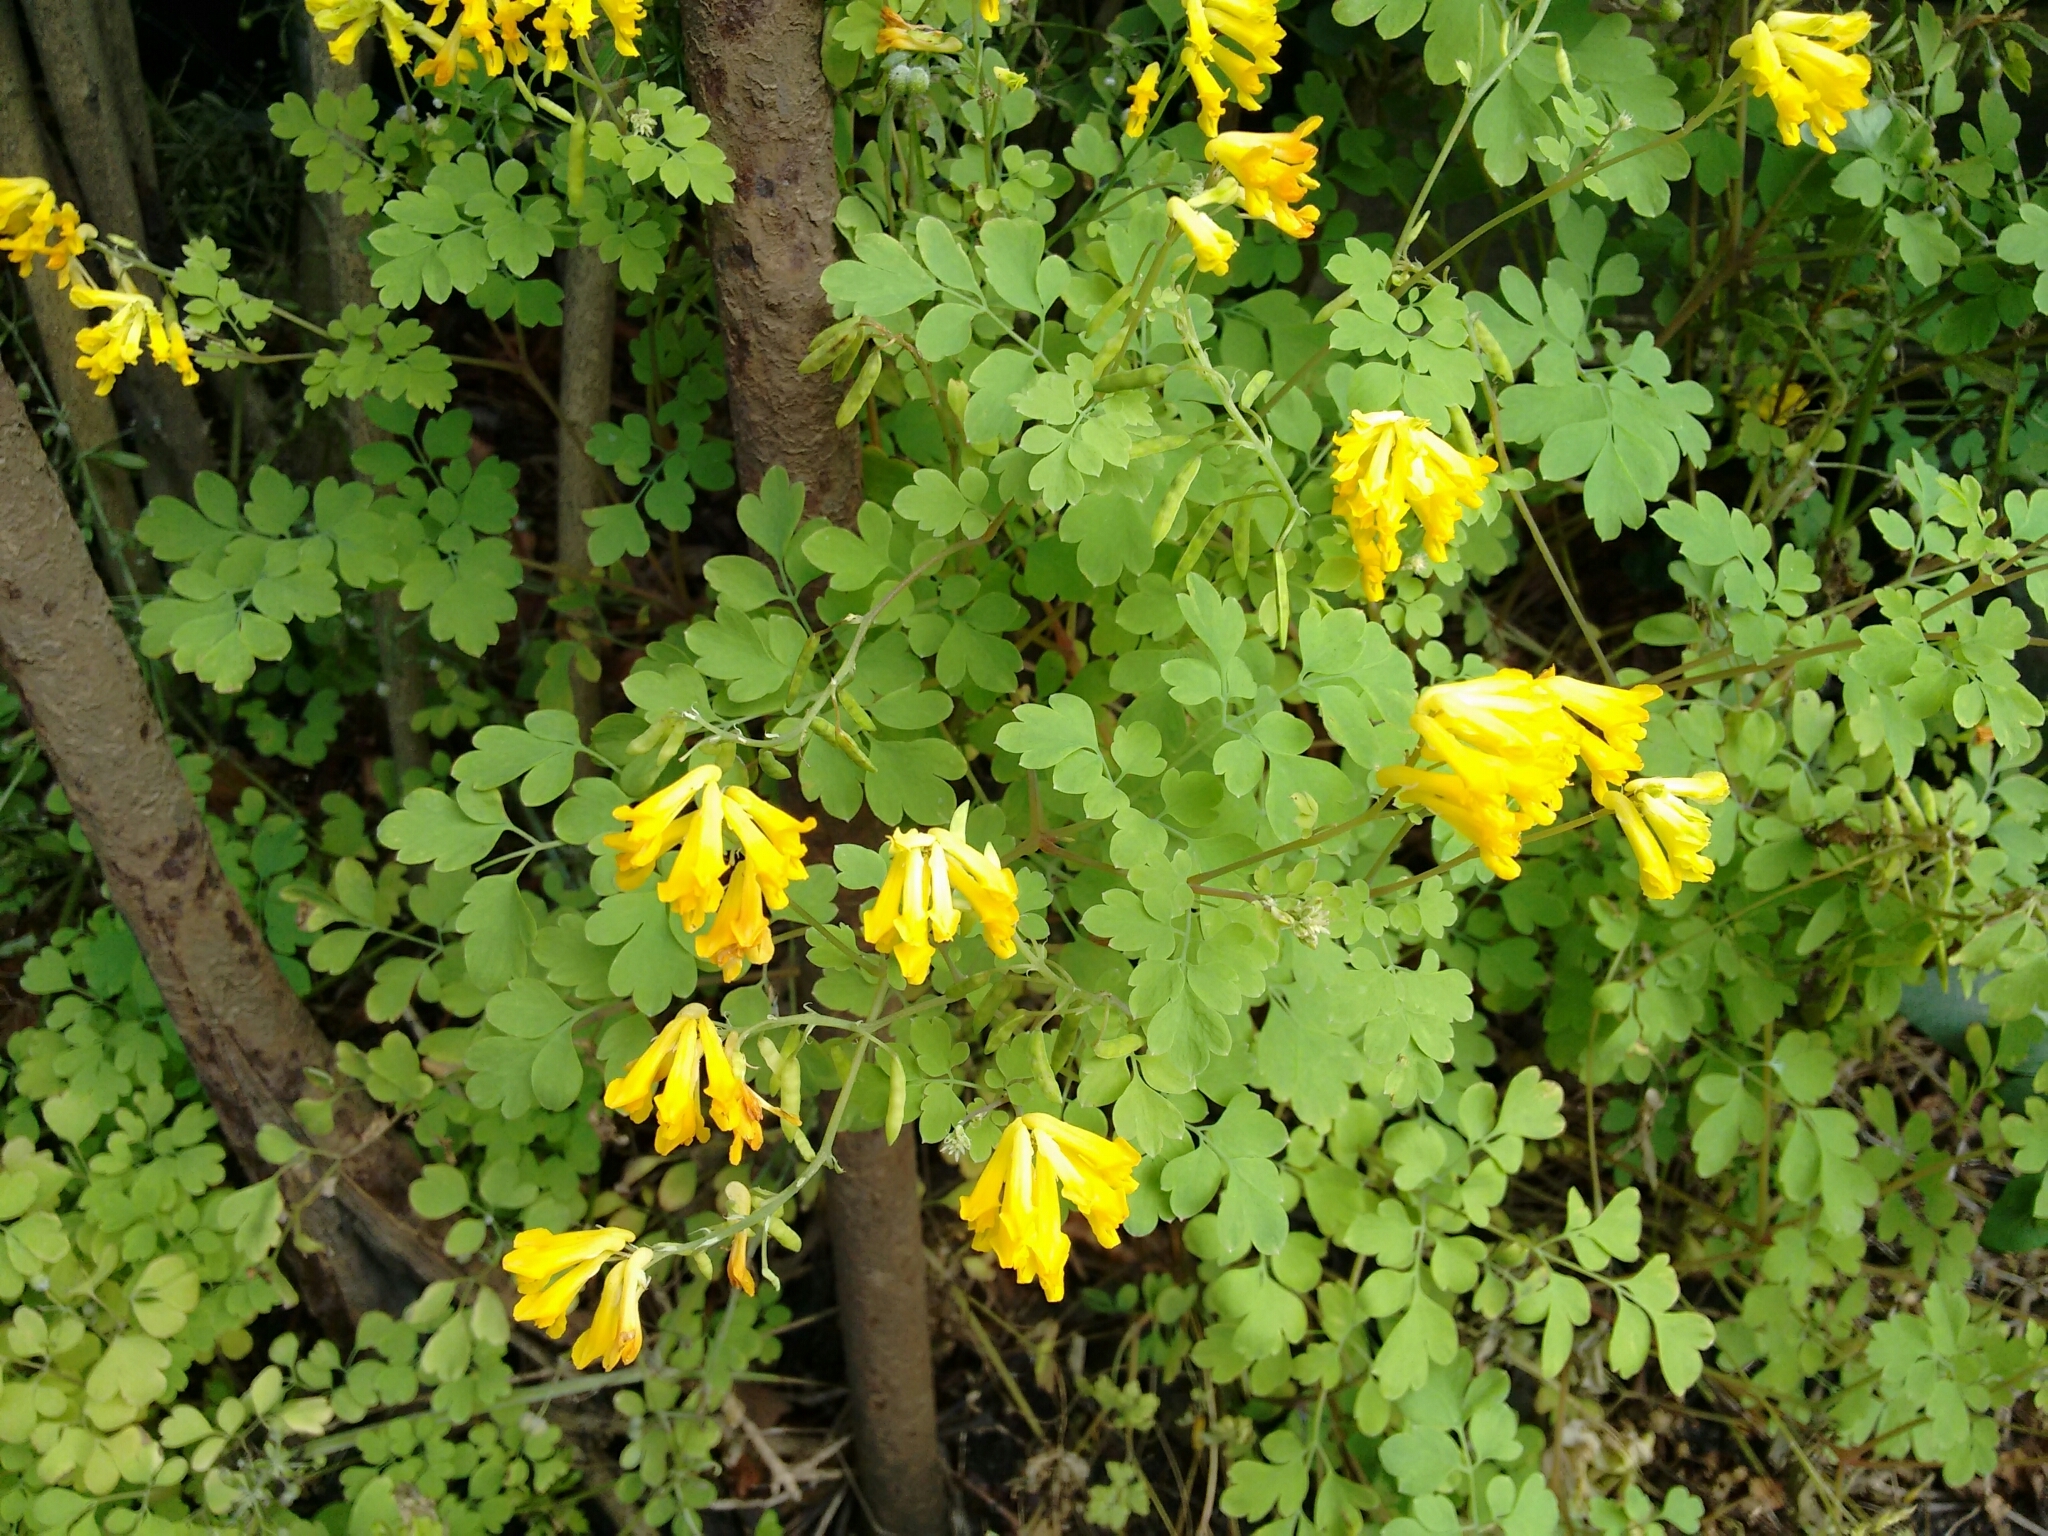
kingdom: Plantae
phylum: Tracheophyta
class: Magnoliopsida
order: Ranunculales
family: Papaveraceae
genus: Pseudofumaria
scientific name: Pseudofumaria lutea
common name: Yellow corydalis
